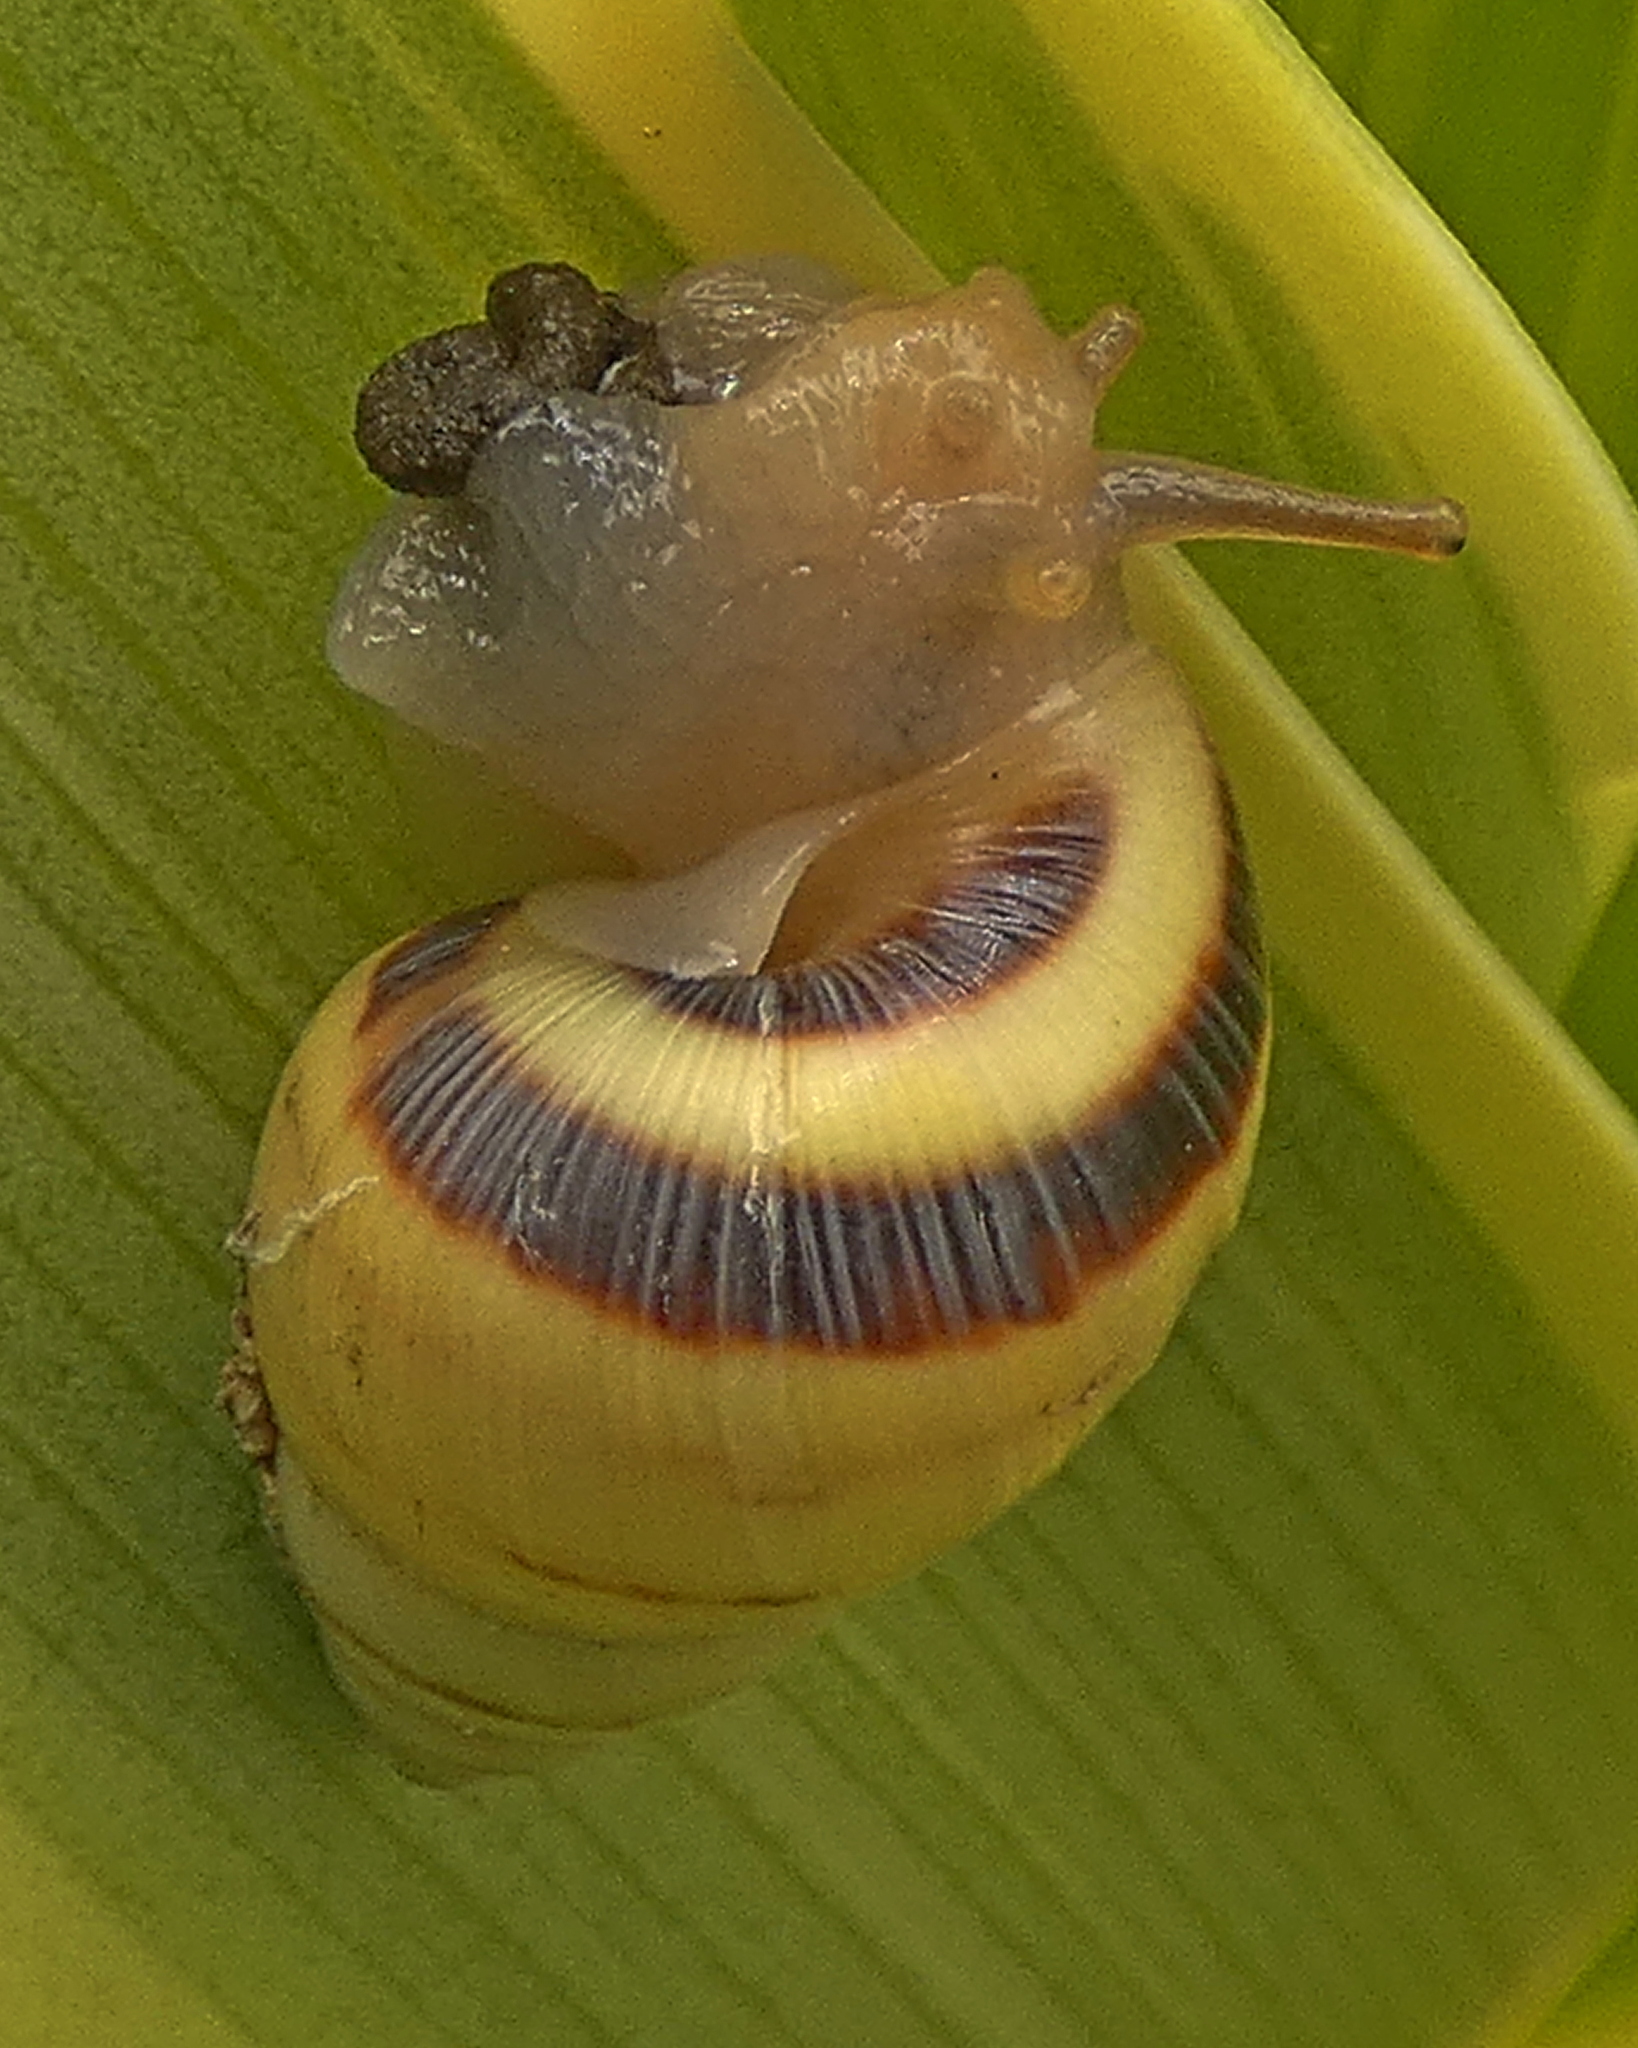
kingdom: Animalia
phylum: Mollusca
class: Gastropoda
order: Stylommatophora
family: Bulimulidae
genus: Drymaeus
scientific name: Drymaeus
